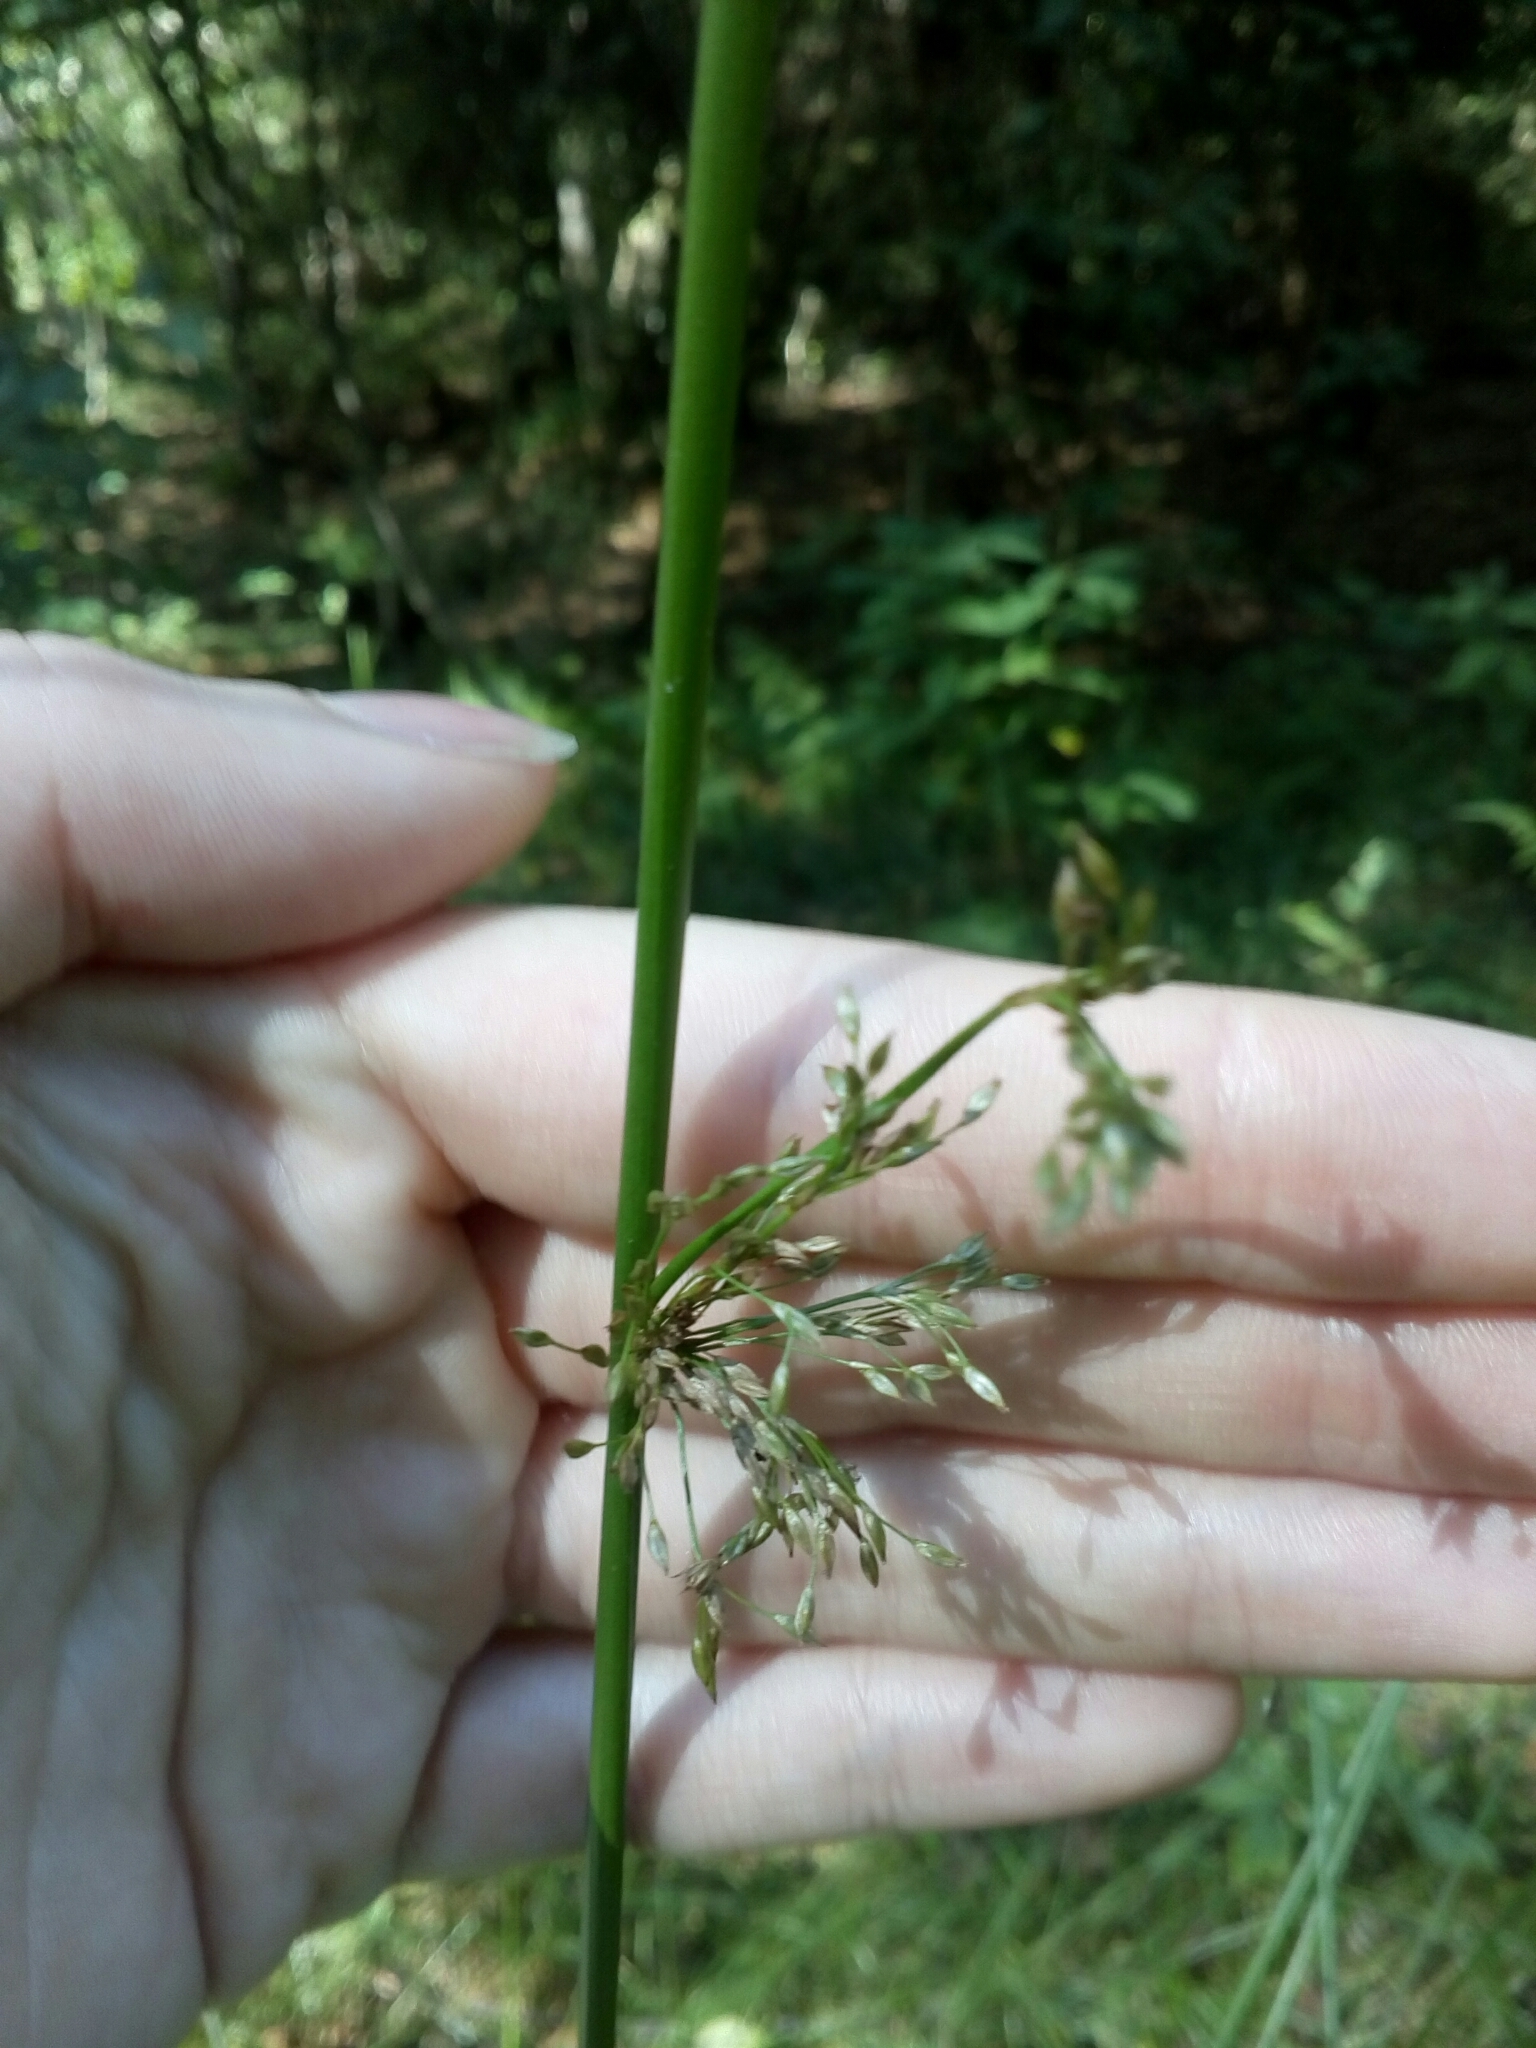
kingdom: Plantae
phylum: Tracheophyta
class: Liliopsida
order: Poales
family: Juncaceae
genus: Juncus
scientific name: Juncus effusus
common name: Soft rush
